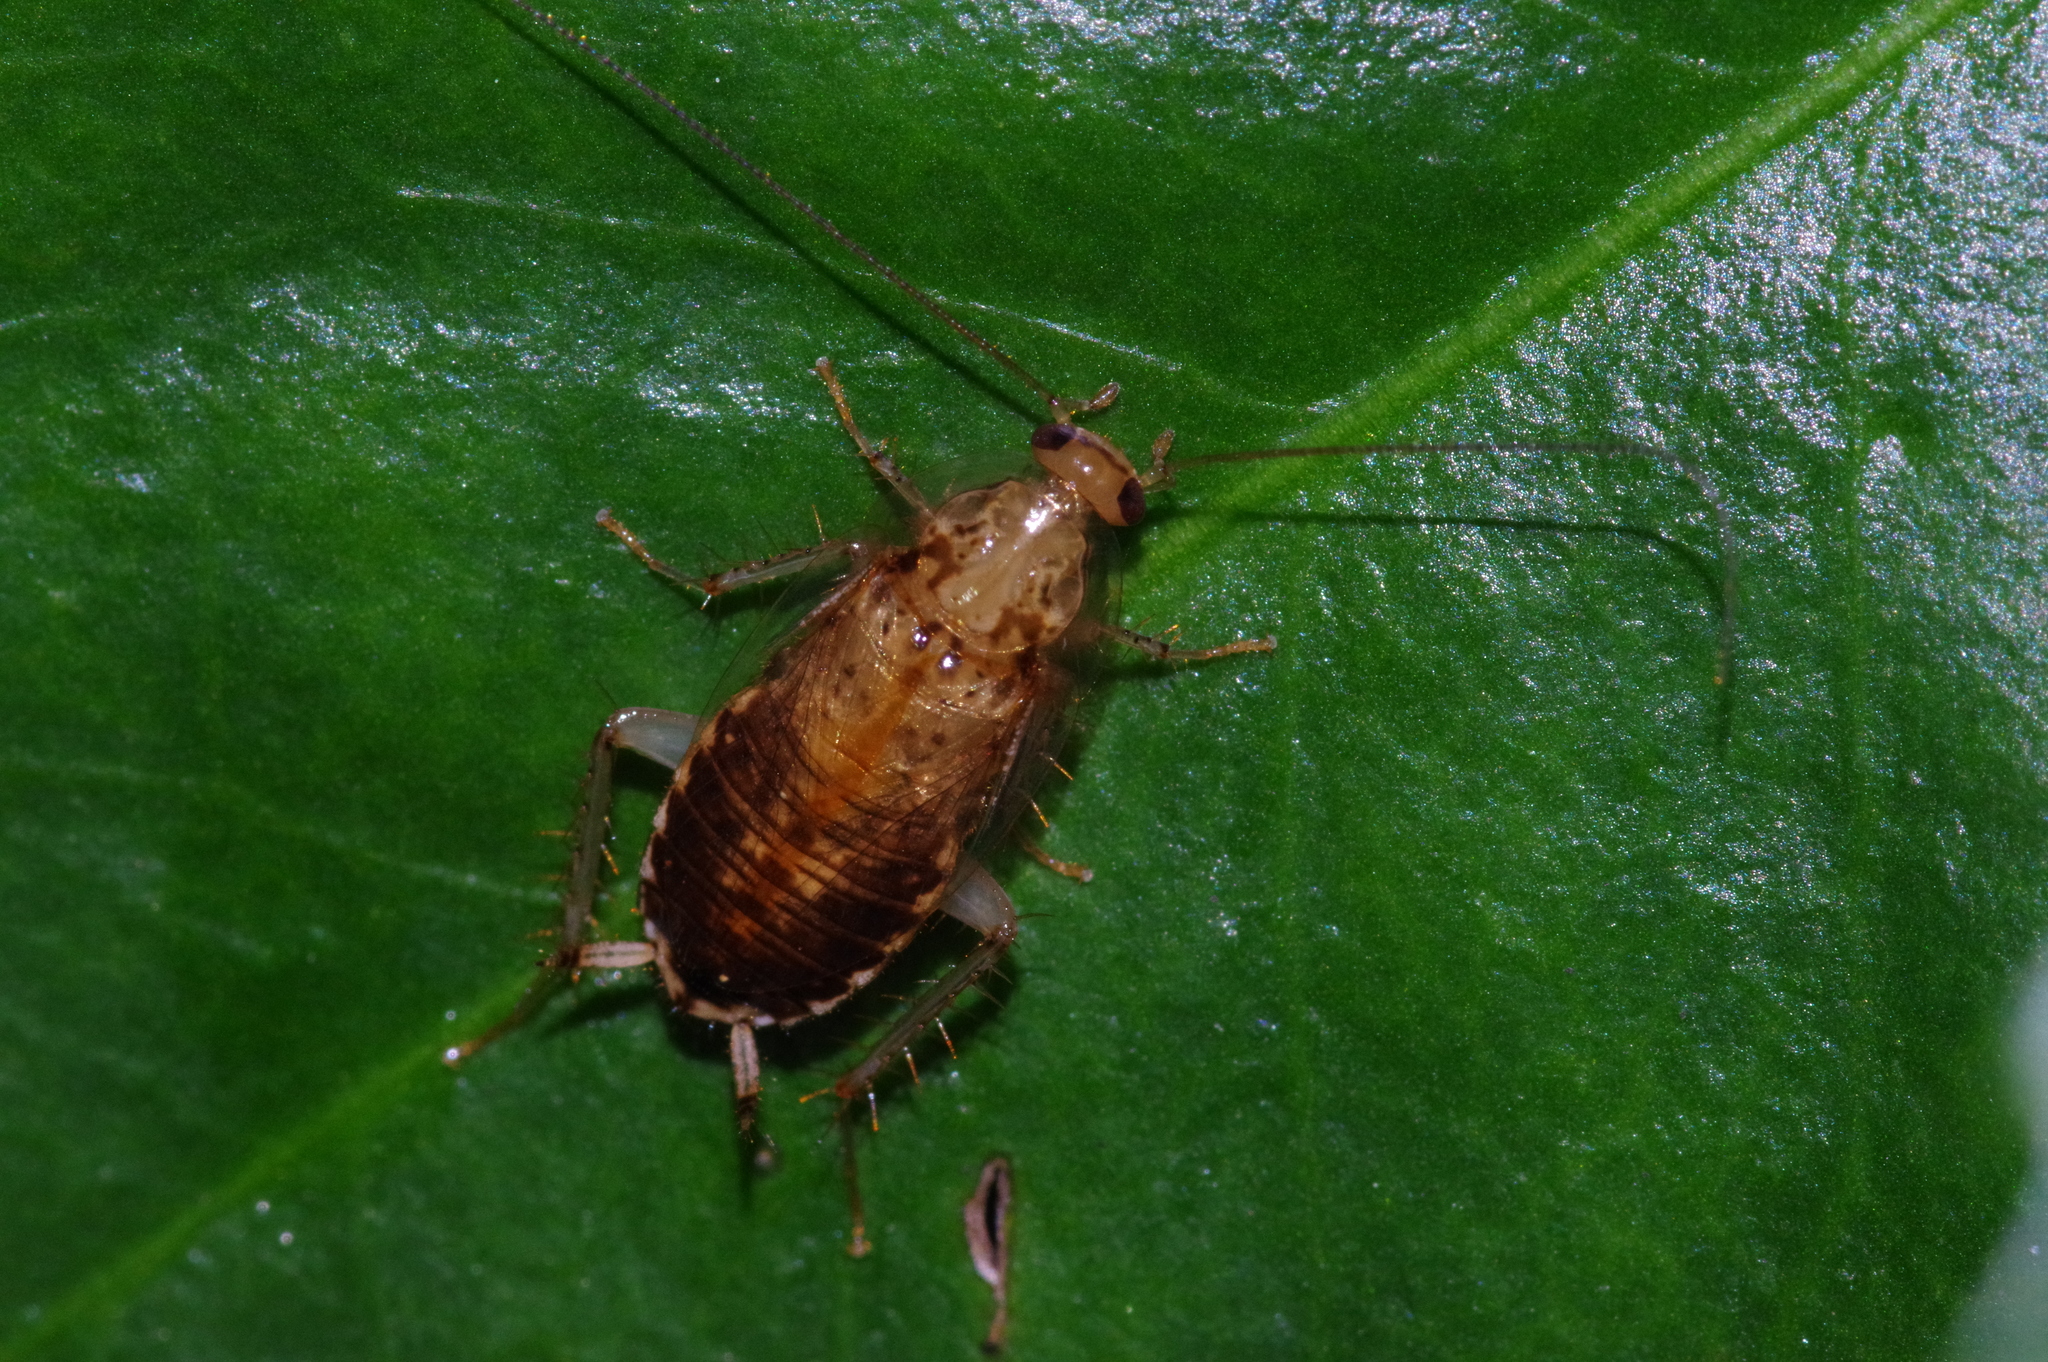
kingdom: Animalia
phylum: Arthropoda
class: Insecta
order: Blattodea
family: Ectobiidae
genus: Margattea
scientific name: Margattea satsumana
